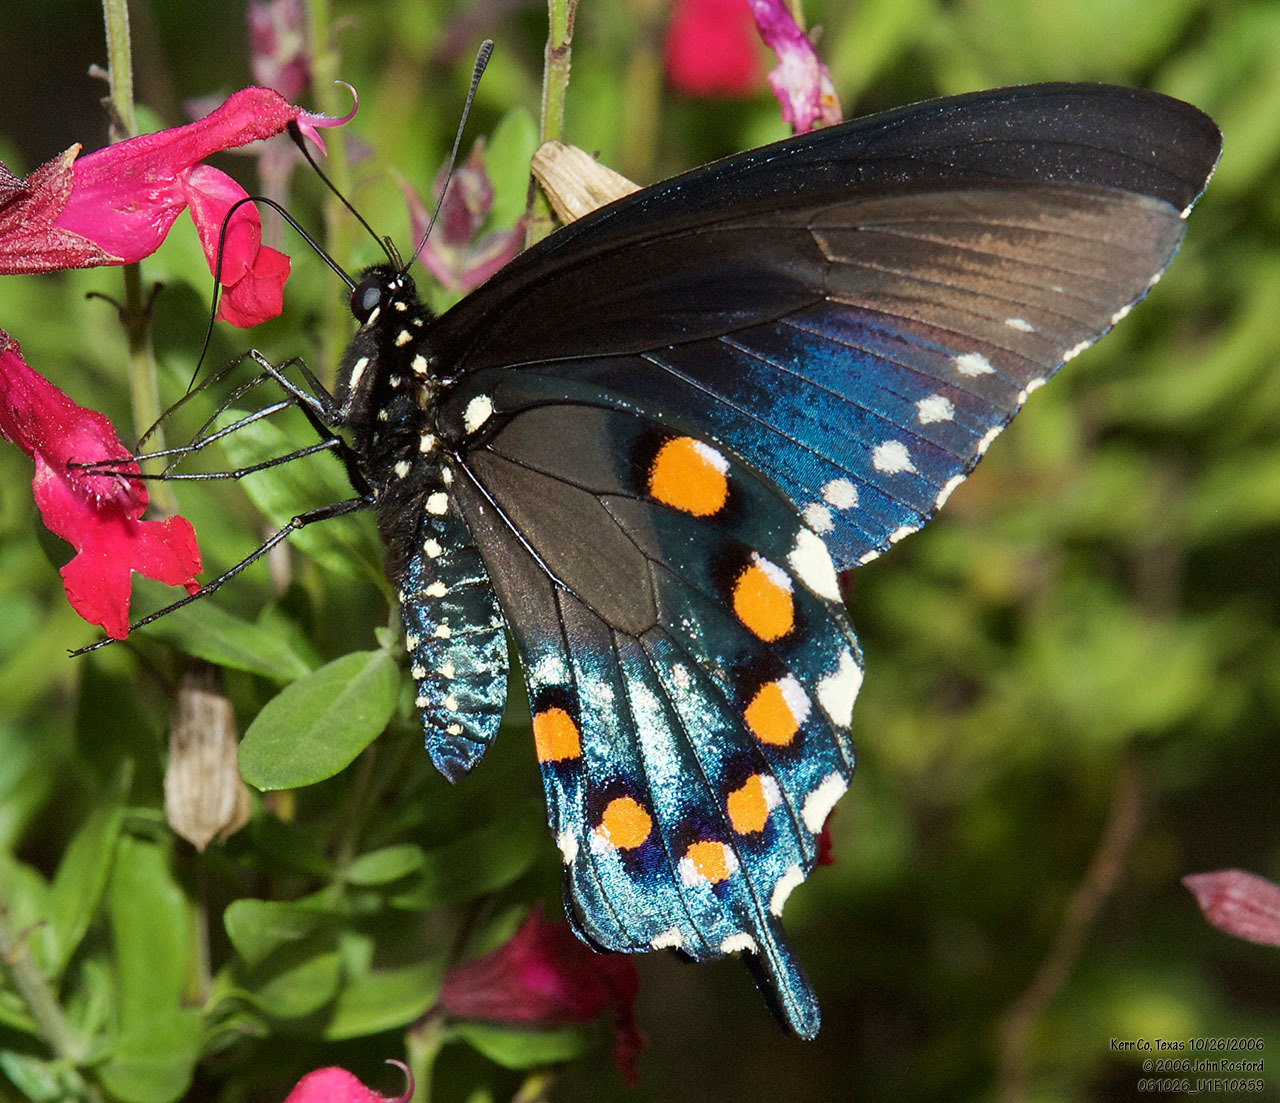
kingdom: Animalia
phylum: Arthropoda
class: Insecta
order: Lepidoptera
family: Papilionidae
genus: Battus
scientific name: Battus philenor
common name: Pipevine swallowtail
